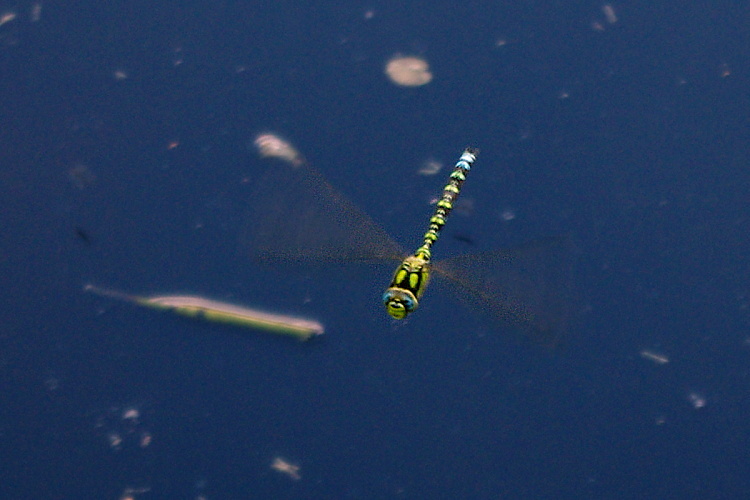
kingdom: Animalia
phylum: Arthropoda
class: Insecta
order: Odonata
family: Aeshnidae
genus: Aeshna
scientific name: Aeshna cyanea
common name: Southern hawker
